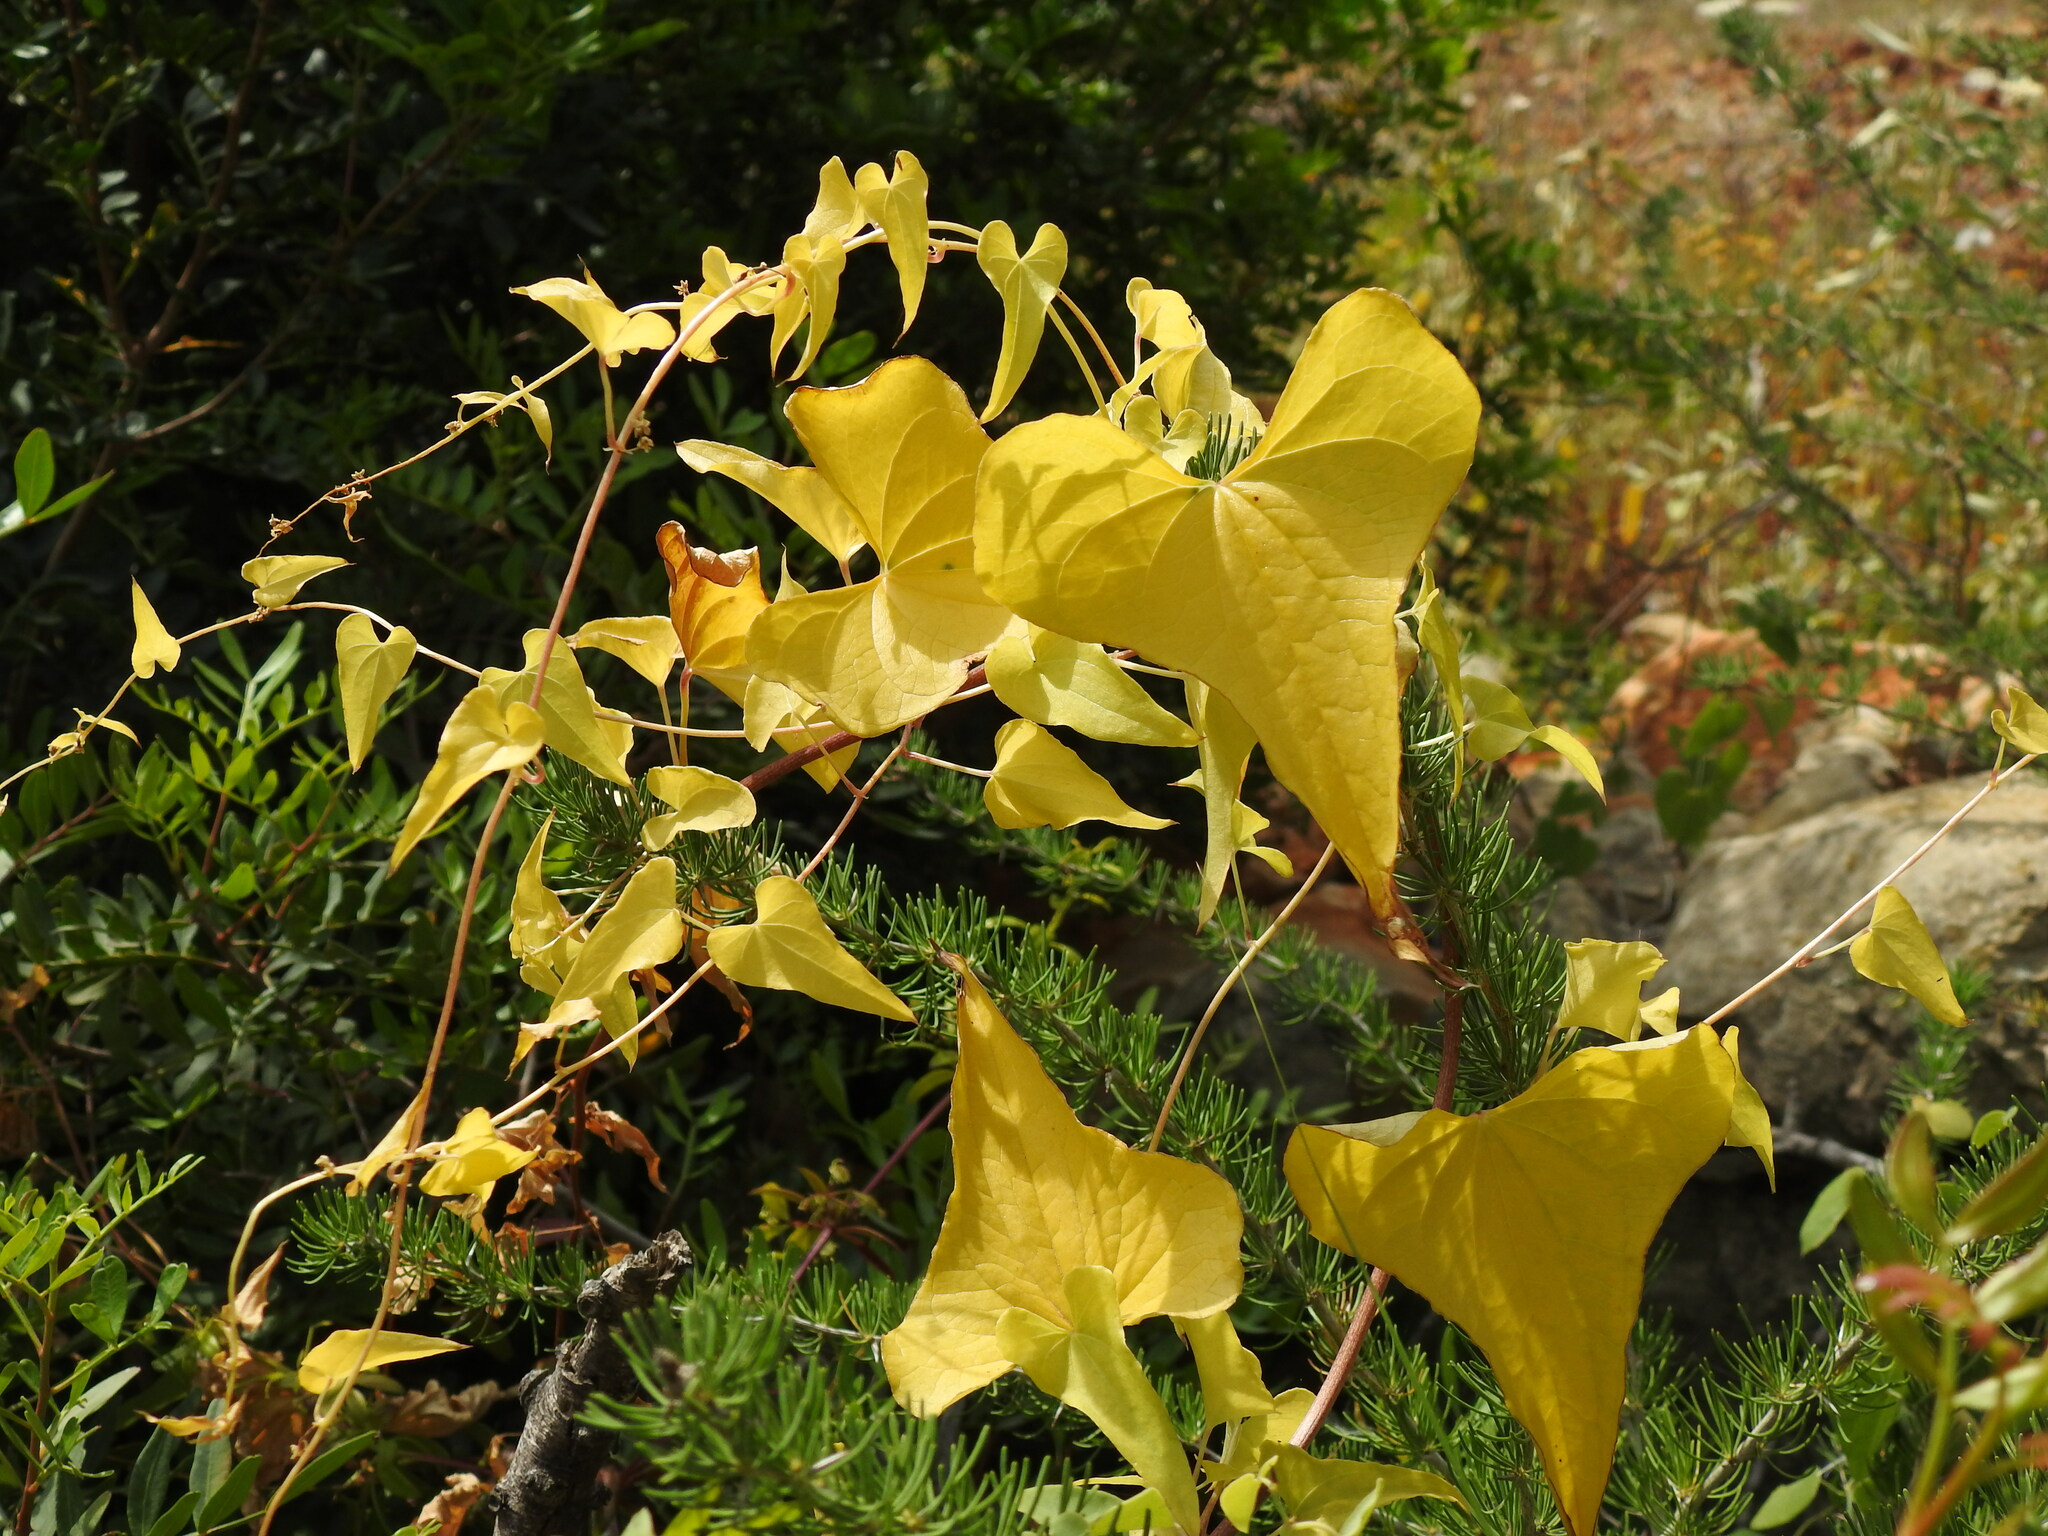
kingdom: Plantae
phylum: Tracheophyta
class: Liliopsida
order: Dioscoreales
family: Dioscoreaceae
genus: Dioscorea
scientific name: Dioscorea communis
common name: Black-bindweed
